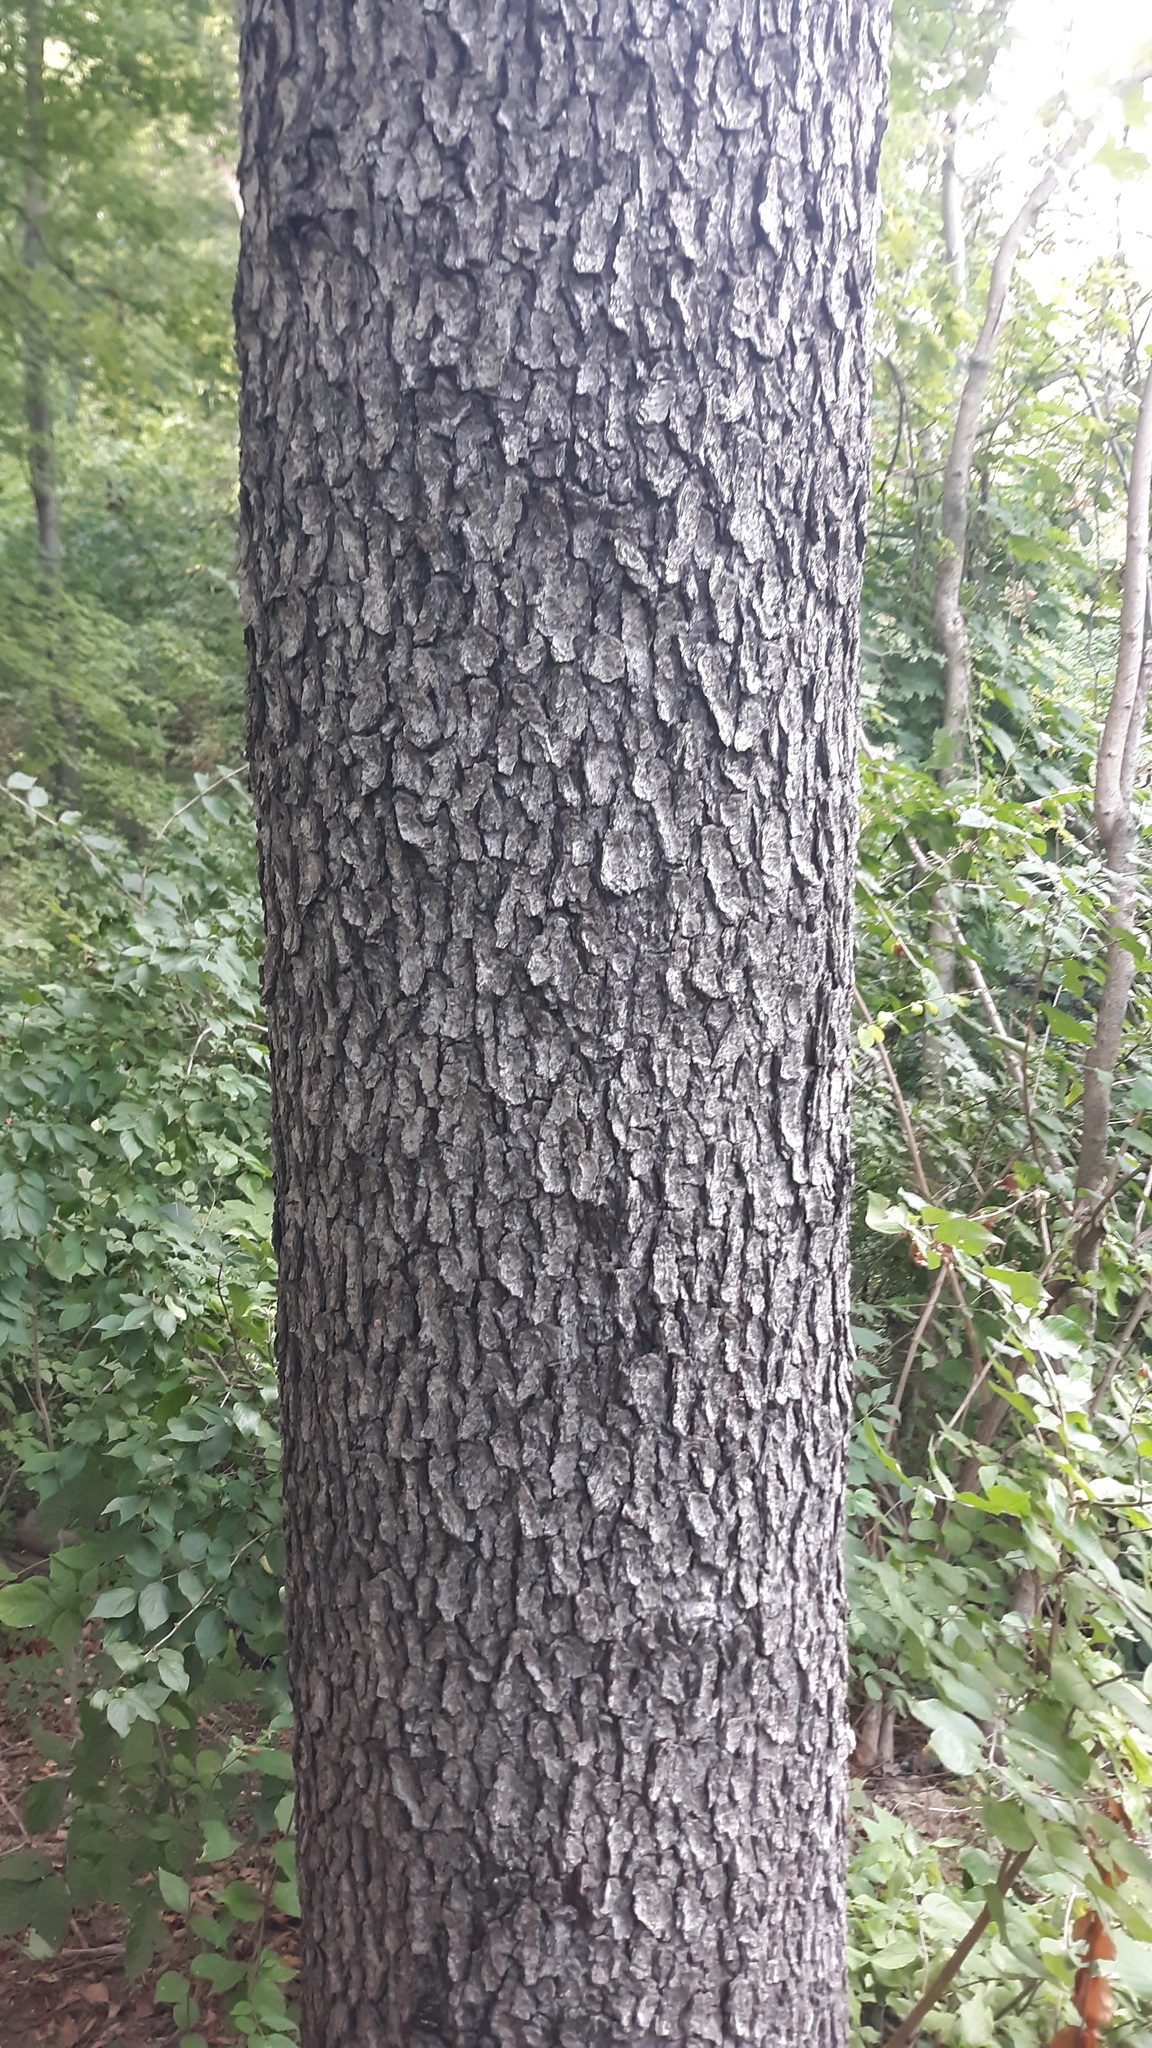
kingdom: Plantae
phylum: Tracheophyta
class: Magnoliopsida
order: Rosales
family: Rosaceae
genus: Prunus
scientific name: Prunus serotina
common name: Black cherry
